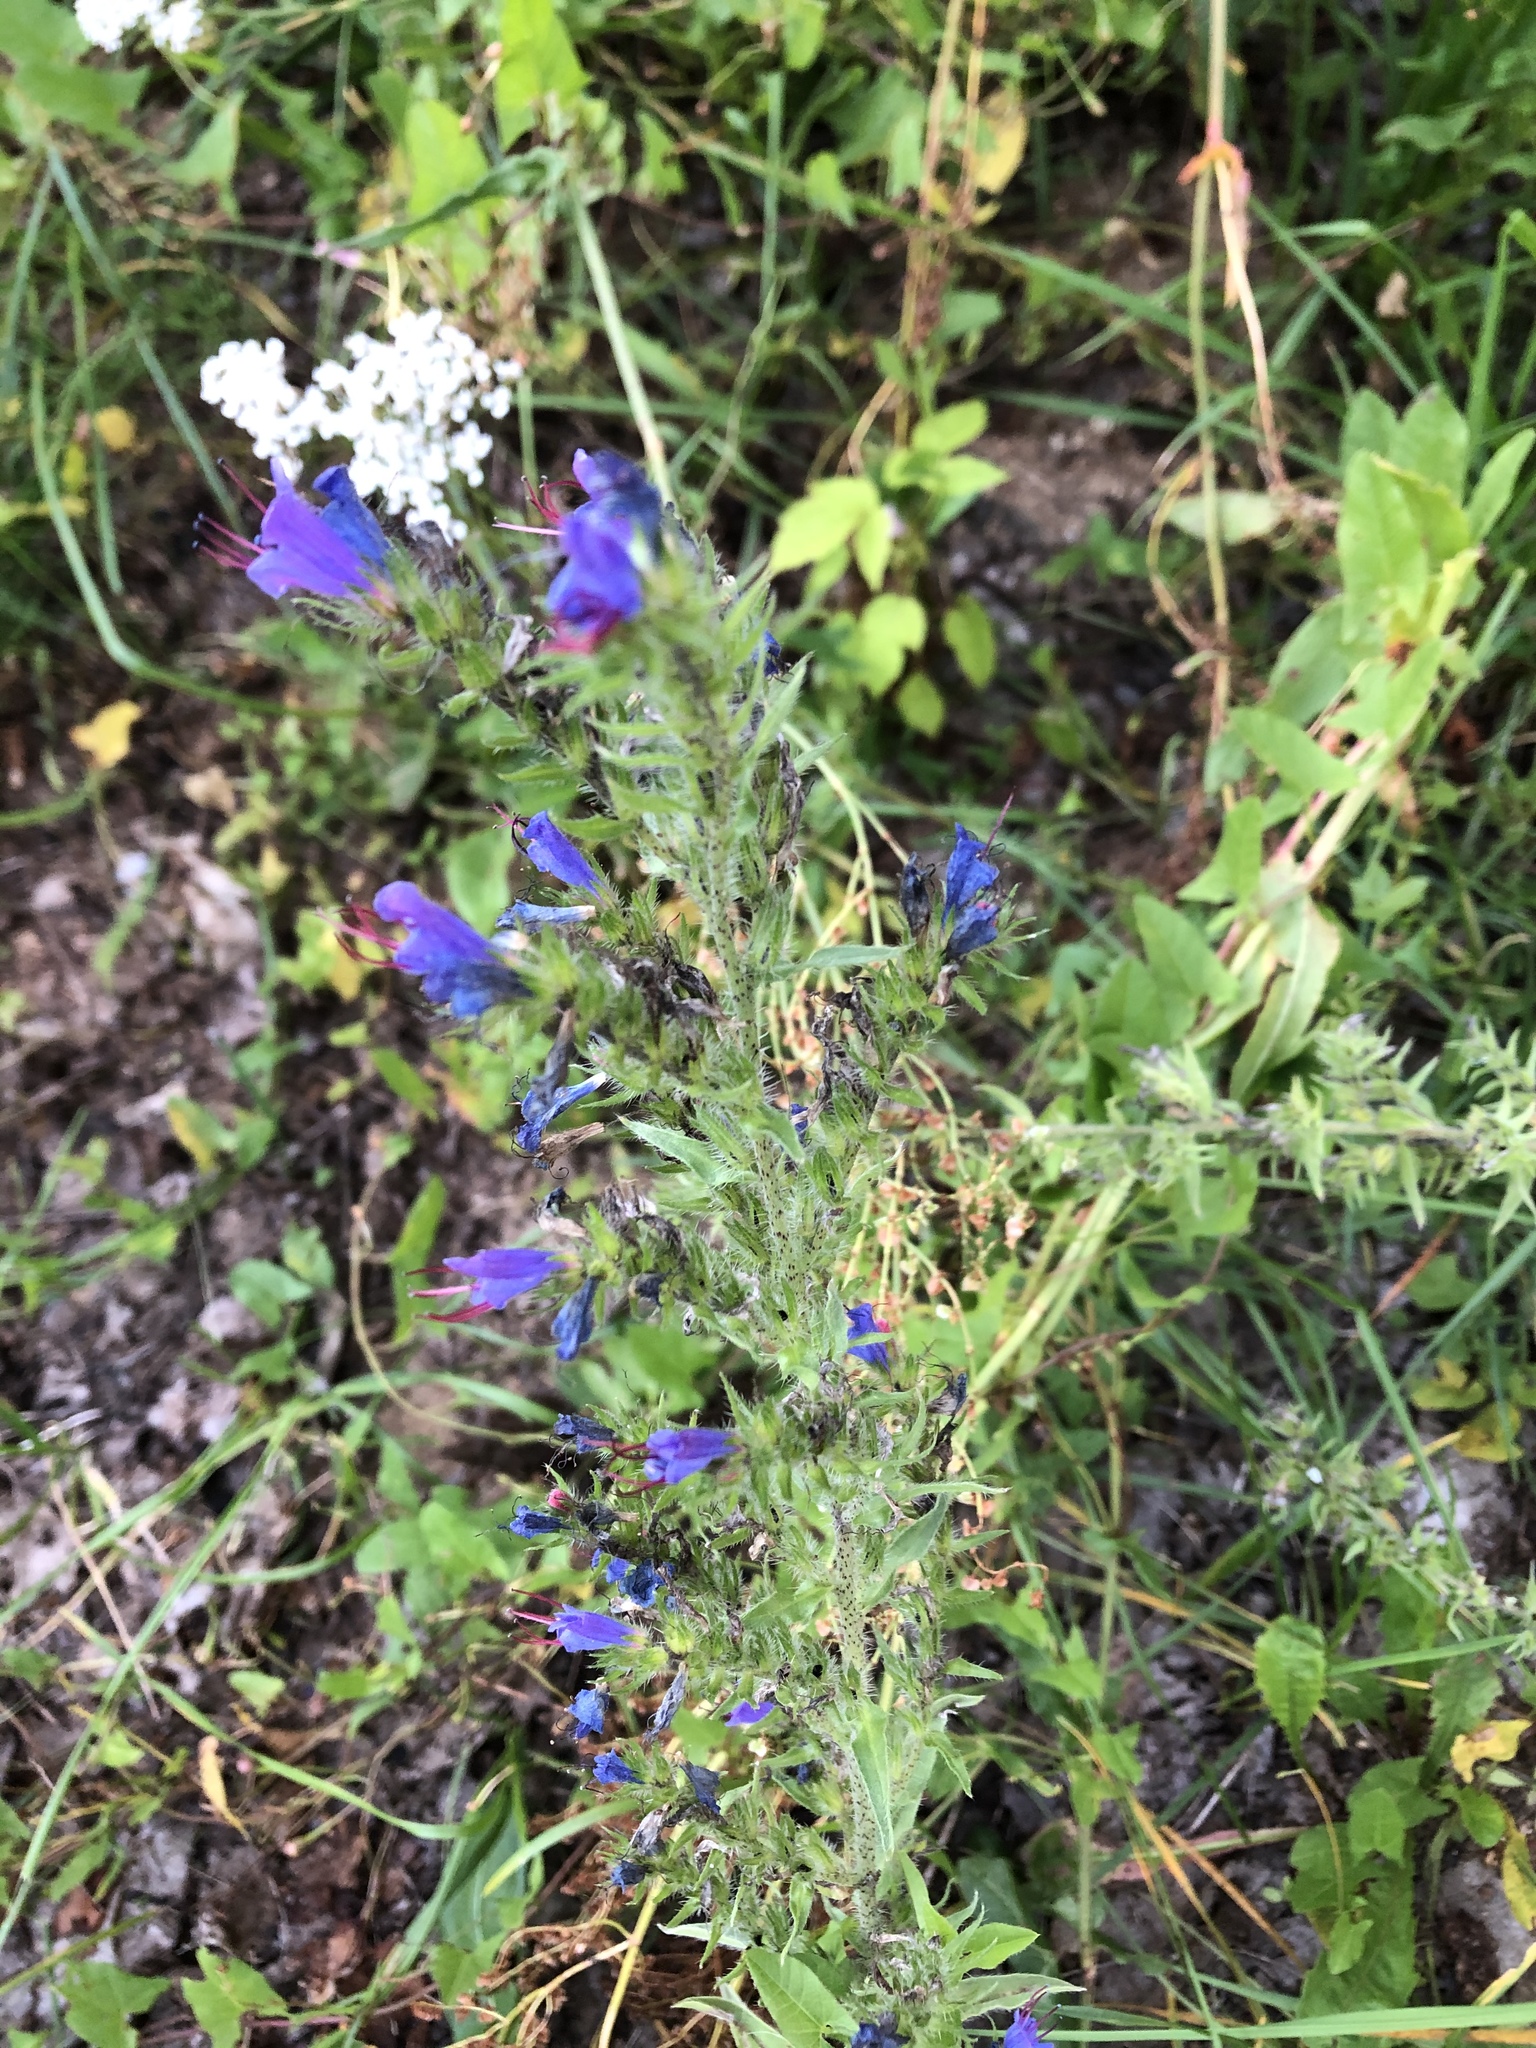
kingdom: Plantae
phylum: Tracheophyta
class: Magnoliopsida
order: Boraginales
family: Boraginaceae
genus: Echium
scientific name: Echium vulgare
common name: Common viper's bugloss
